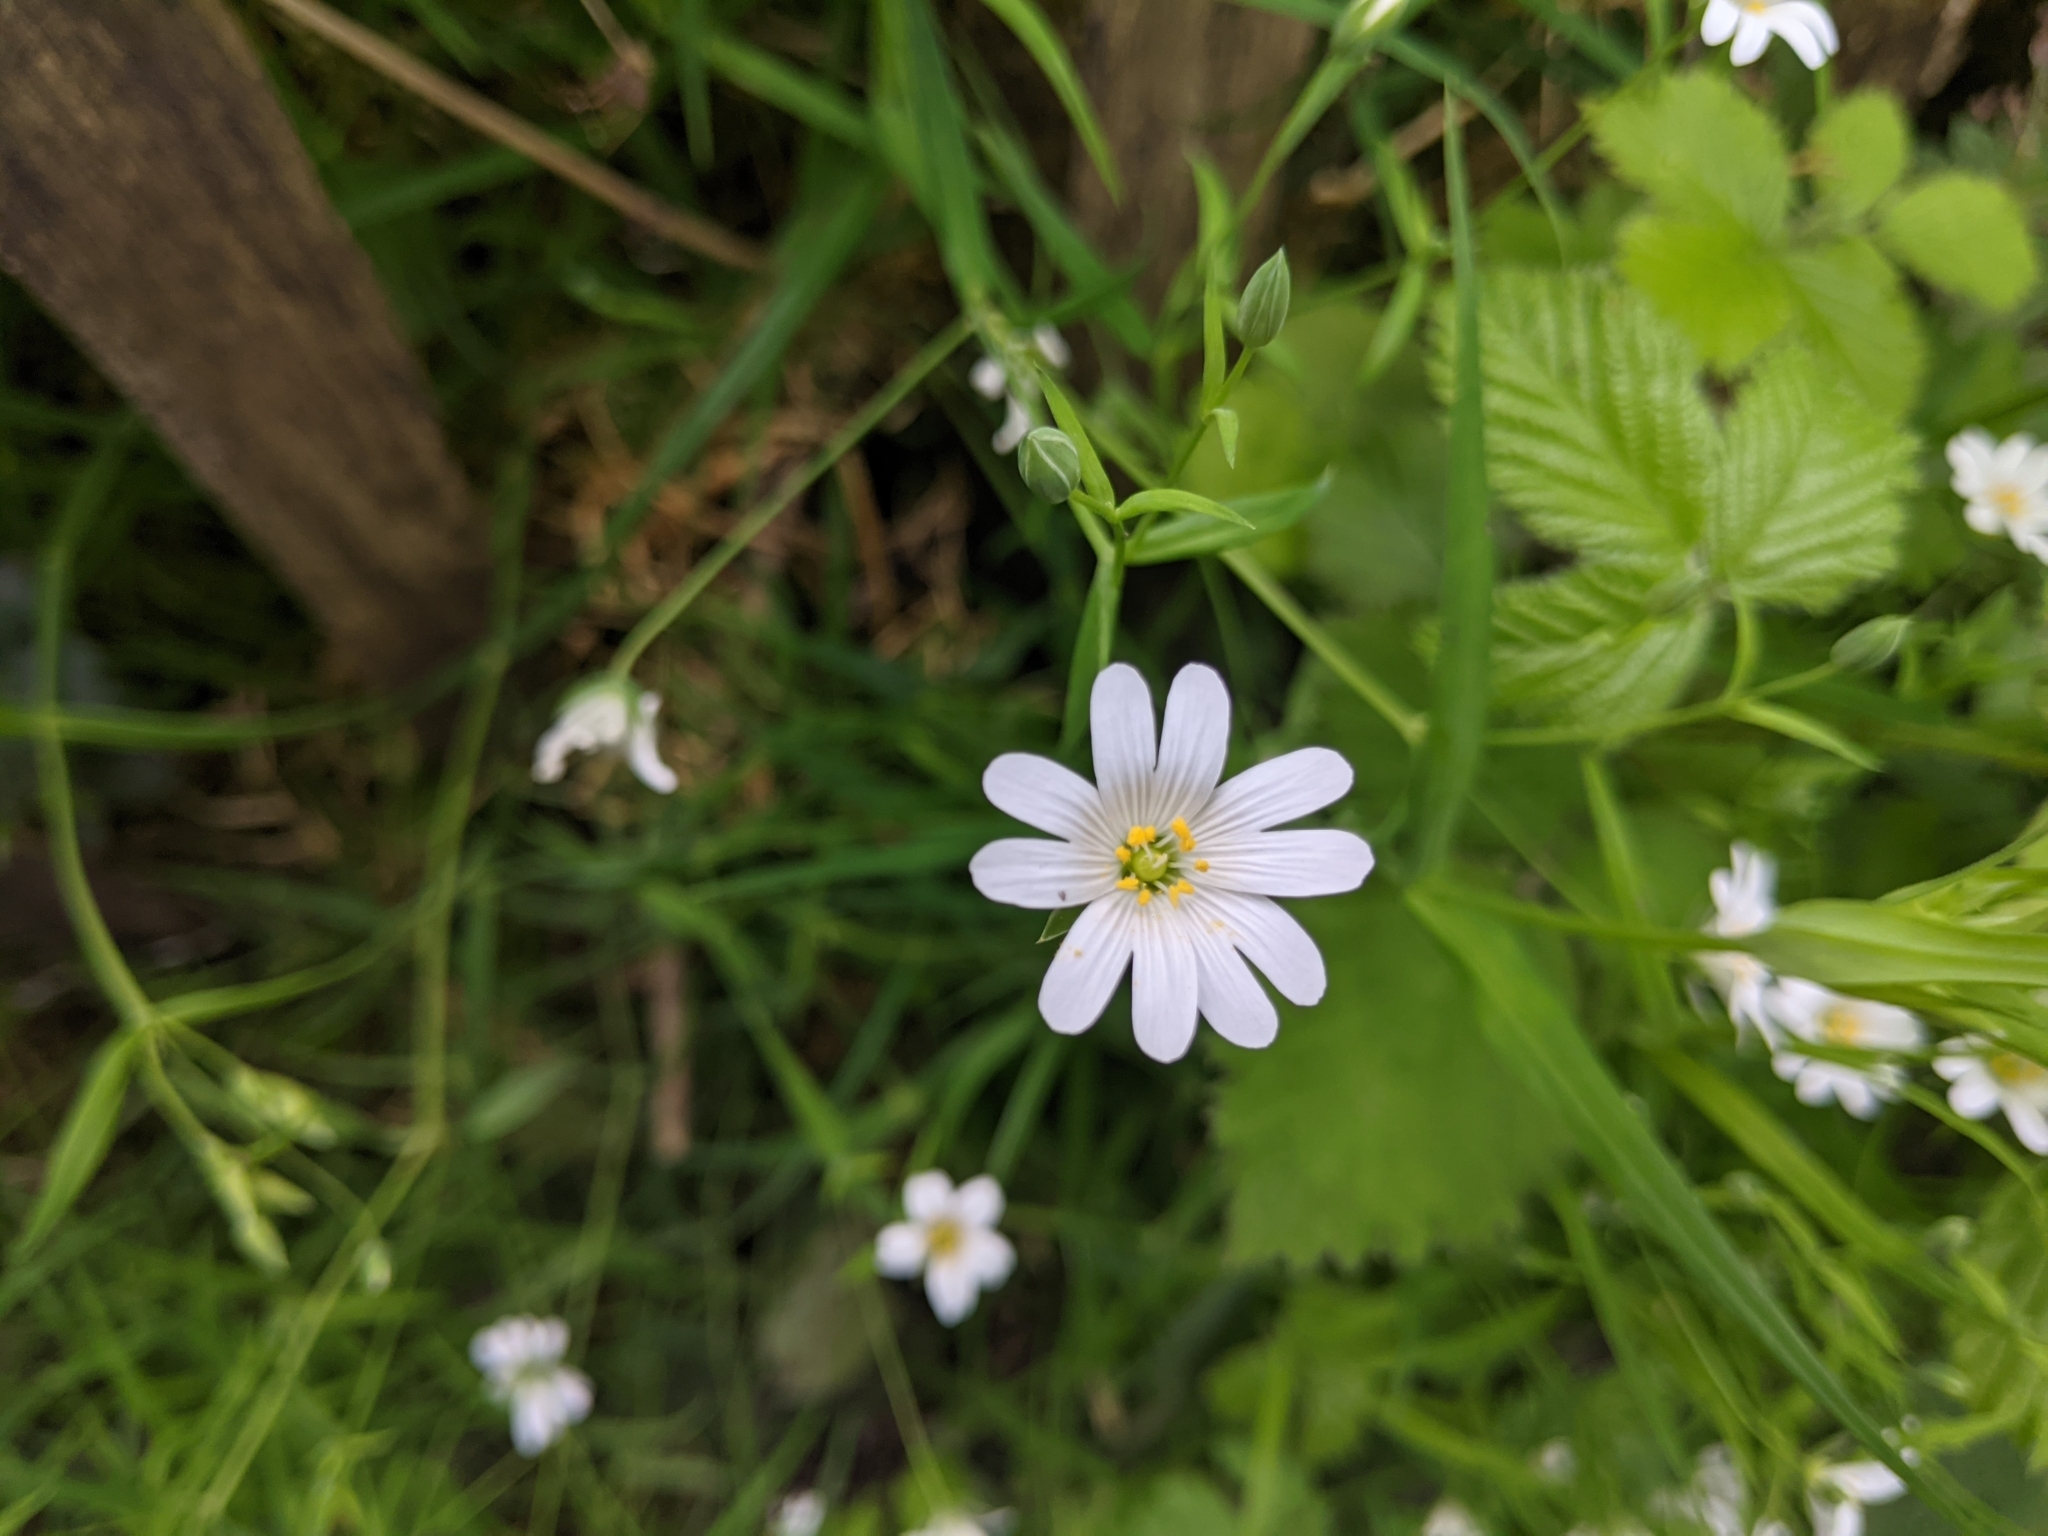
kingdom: Plantae
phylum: Tracheophyta
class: Magnoliopsida
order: Caryophyllales
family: Caryophyllaceae
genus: Rabelera
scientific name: Rabelera holostea
